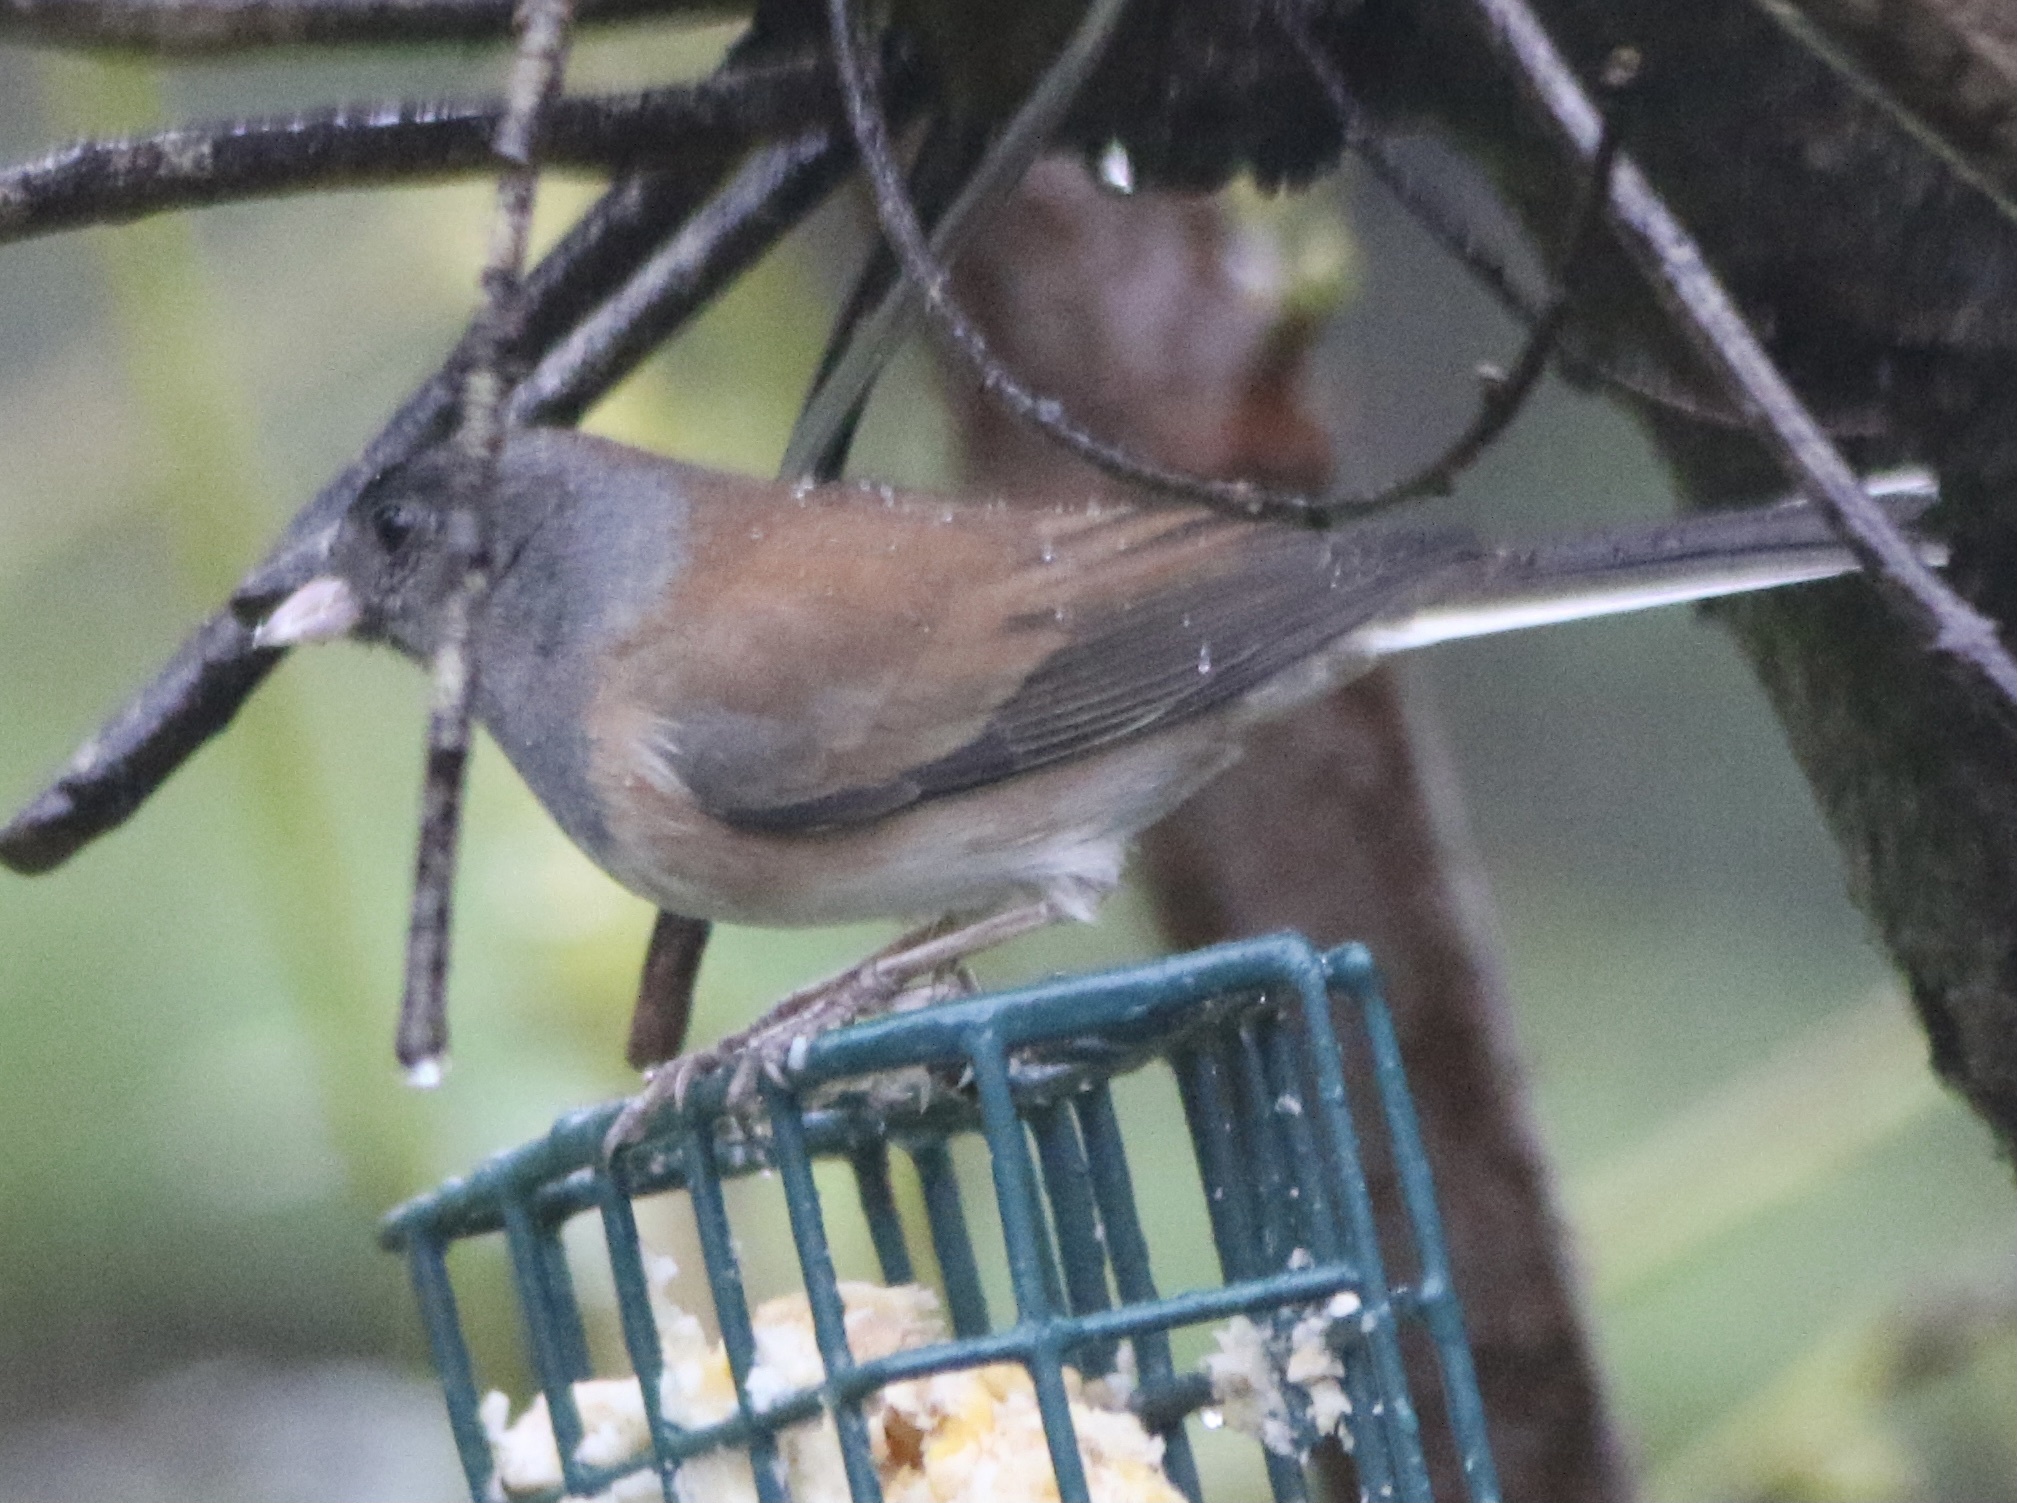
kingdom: Animalia
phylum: Chordata
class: Aves
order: Passeriformes
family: Passerellidae
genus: Junco
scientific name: Junco hyemalis
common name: Dark-eyed junco
